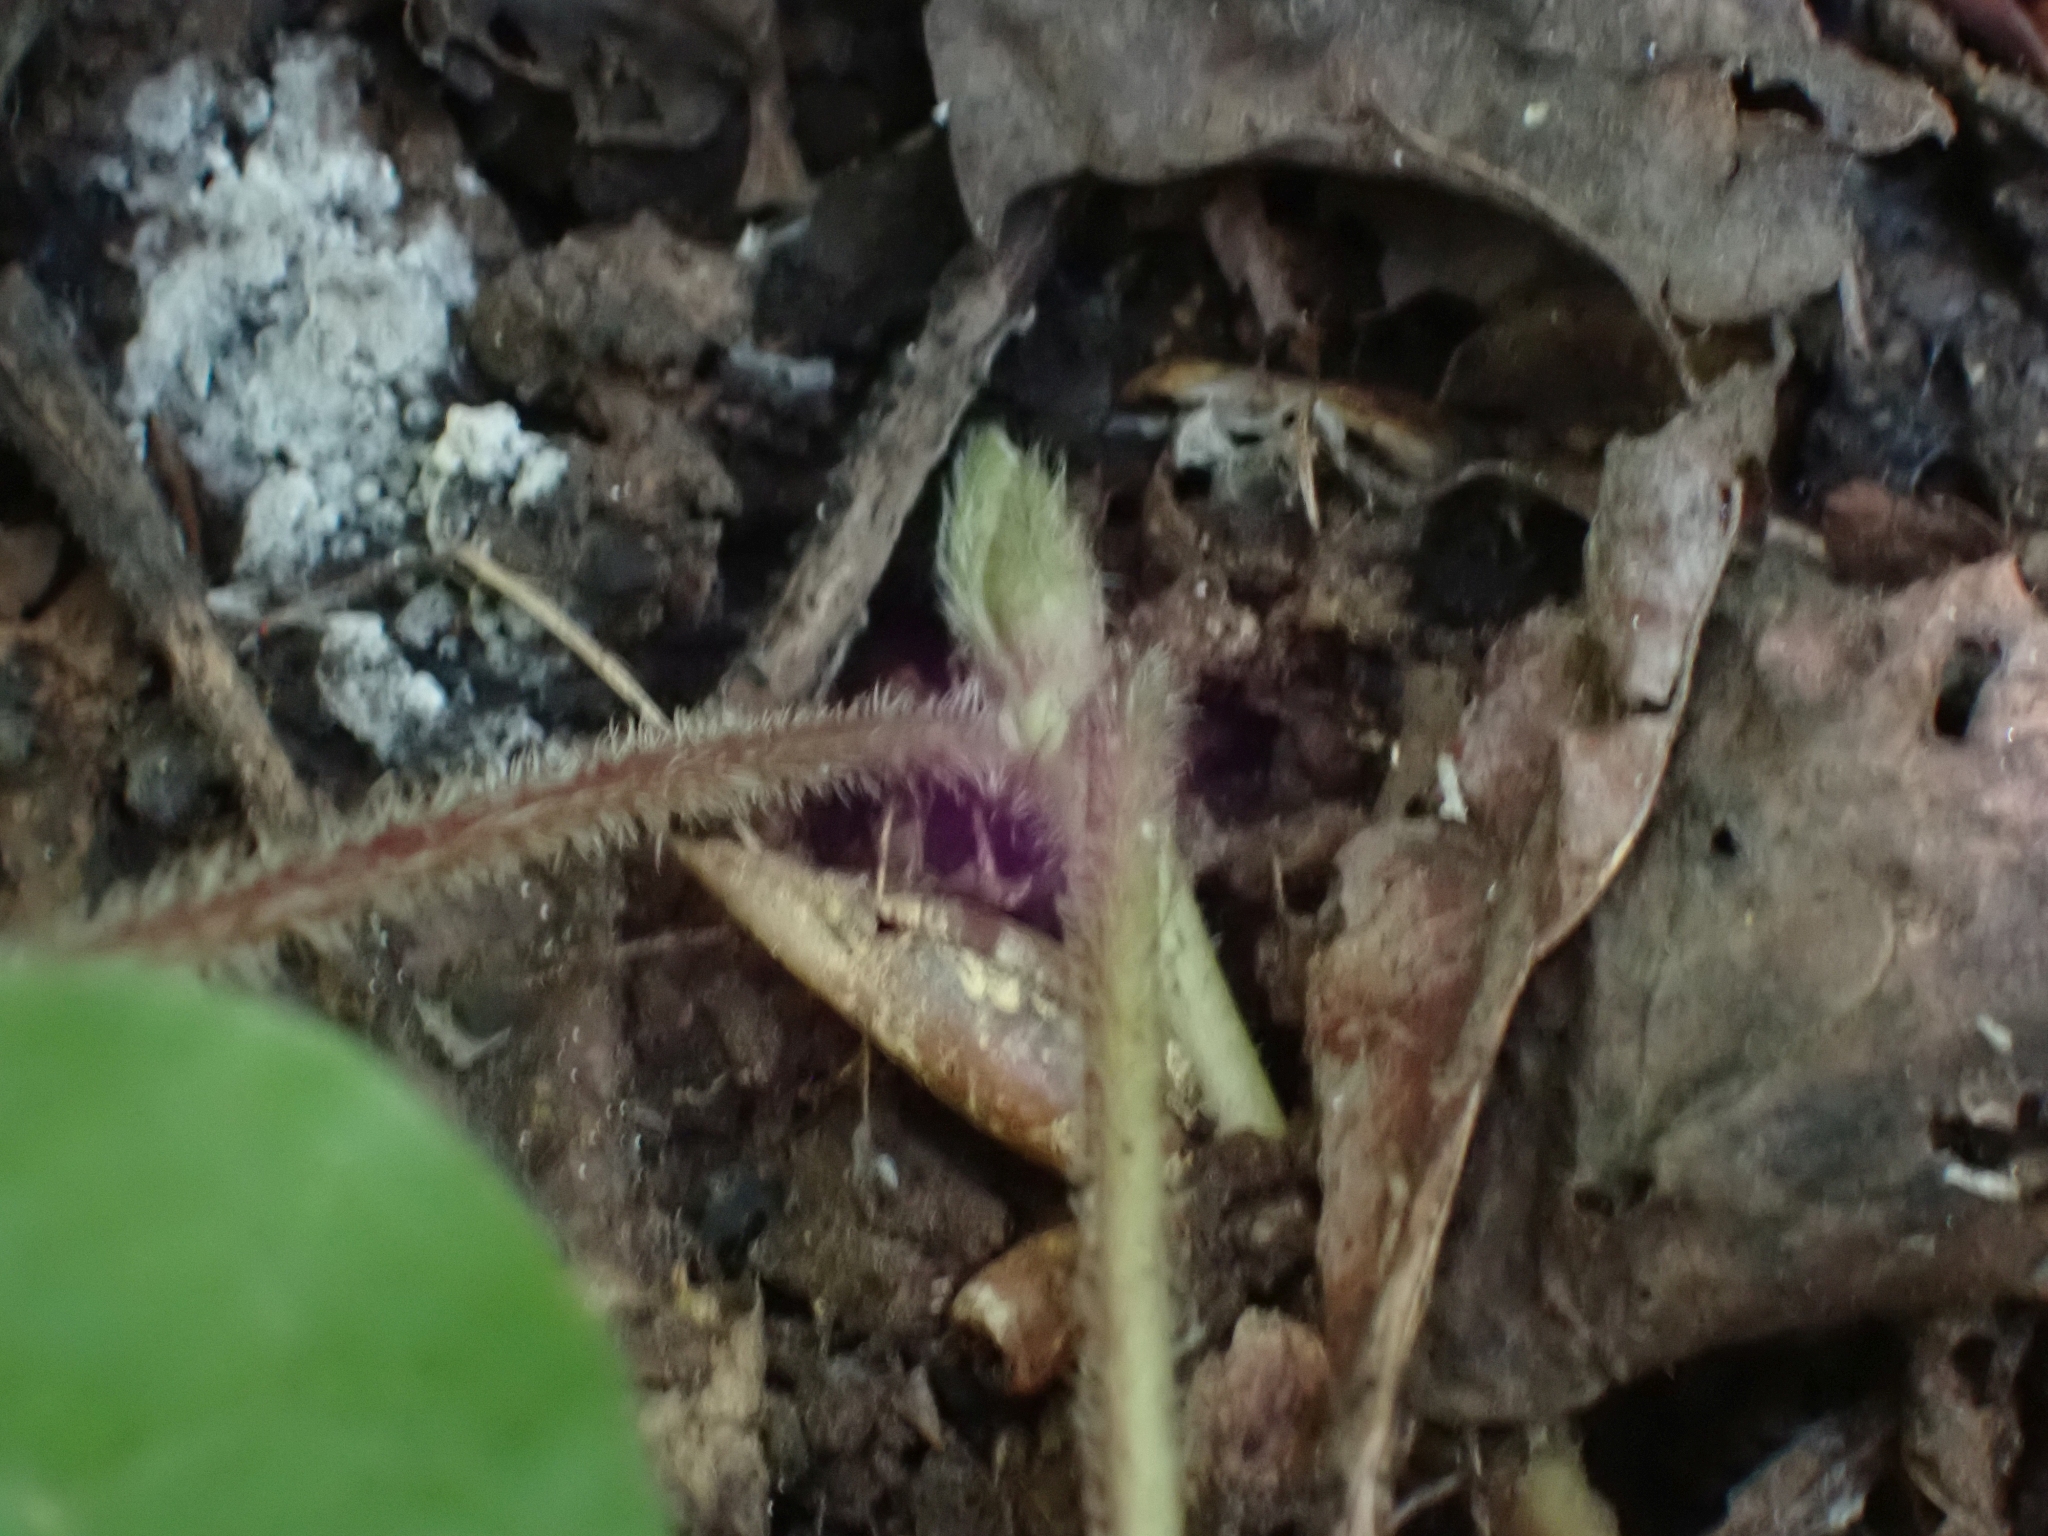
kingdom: Plantae
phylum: Tracheophyta
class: Magnoliopsida
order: Piperales
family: Aristolochiaceae
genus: Asarum
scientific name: Asarum caudatum
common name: Wild ginger
